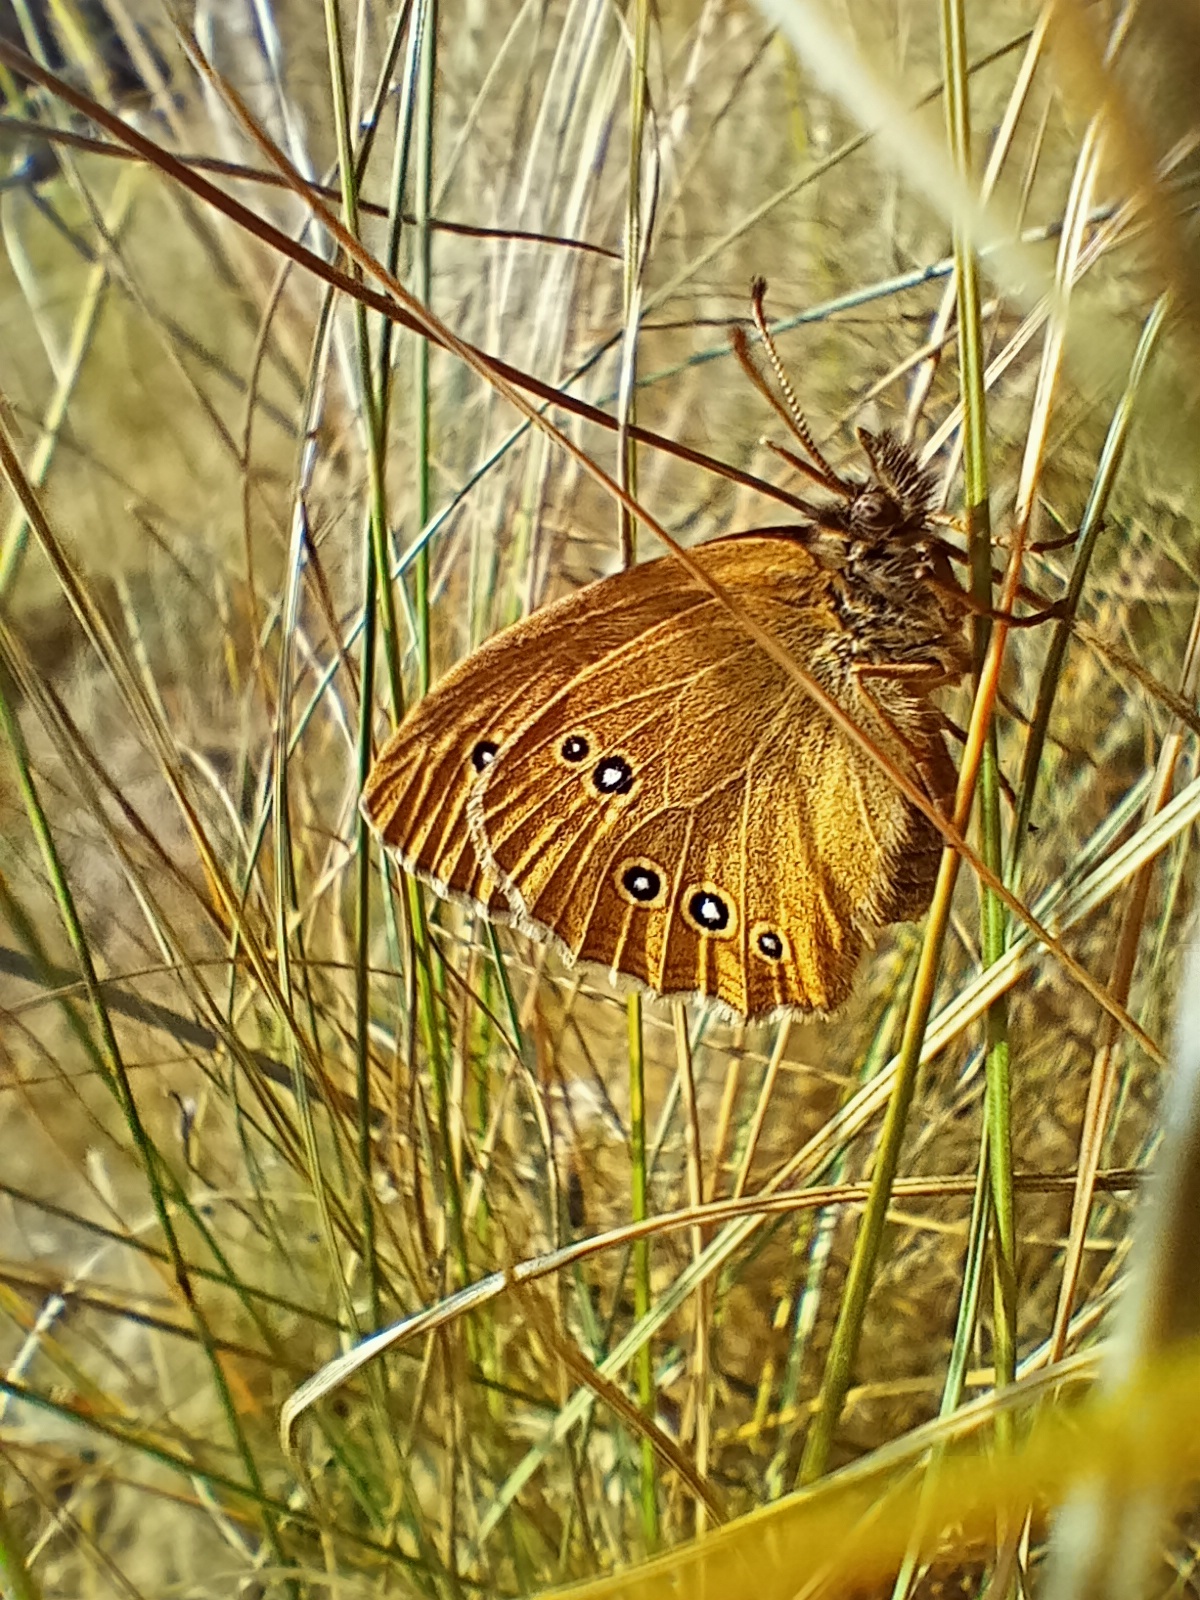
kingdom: Animalia
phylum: Arthropoda
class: Insecta
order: Lepidoptera
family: Nymphalidae
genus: Aphantopus
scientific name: Aphantopus hyperantus
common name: Ringlet
